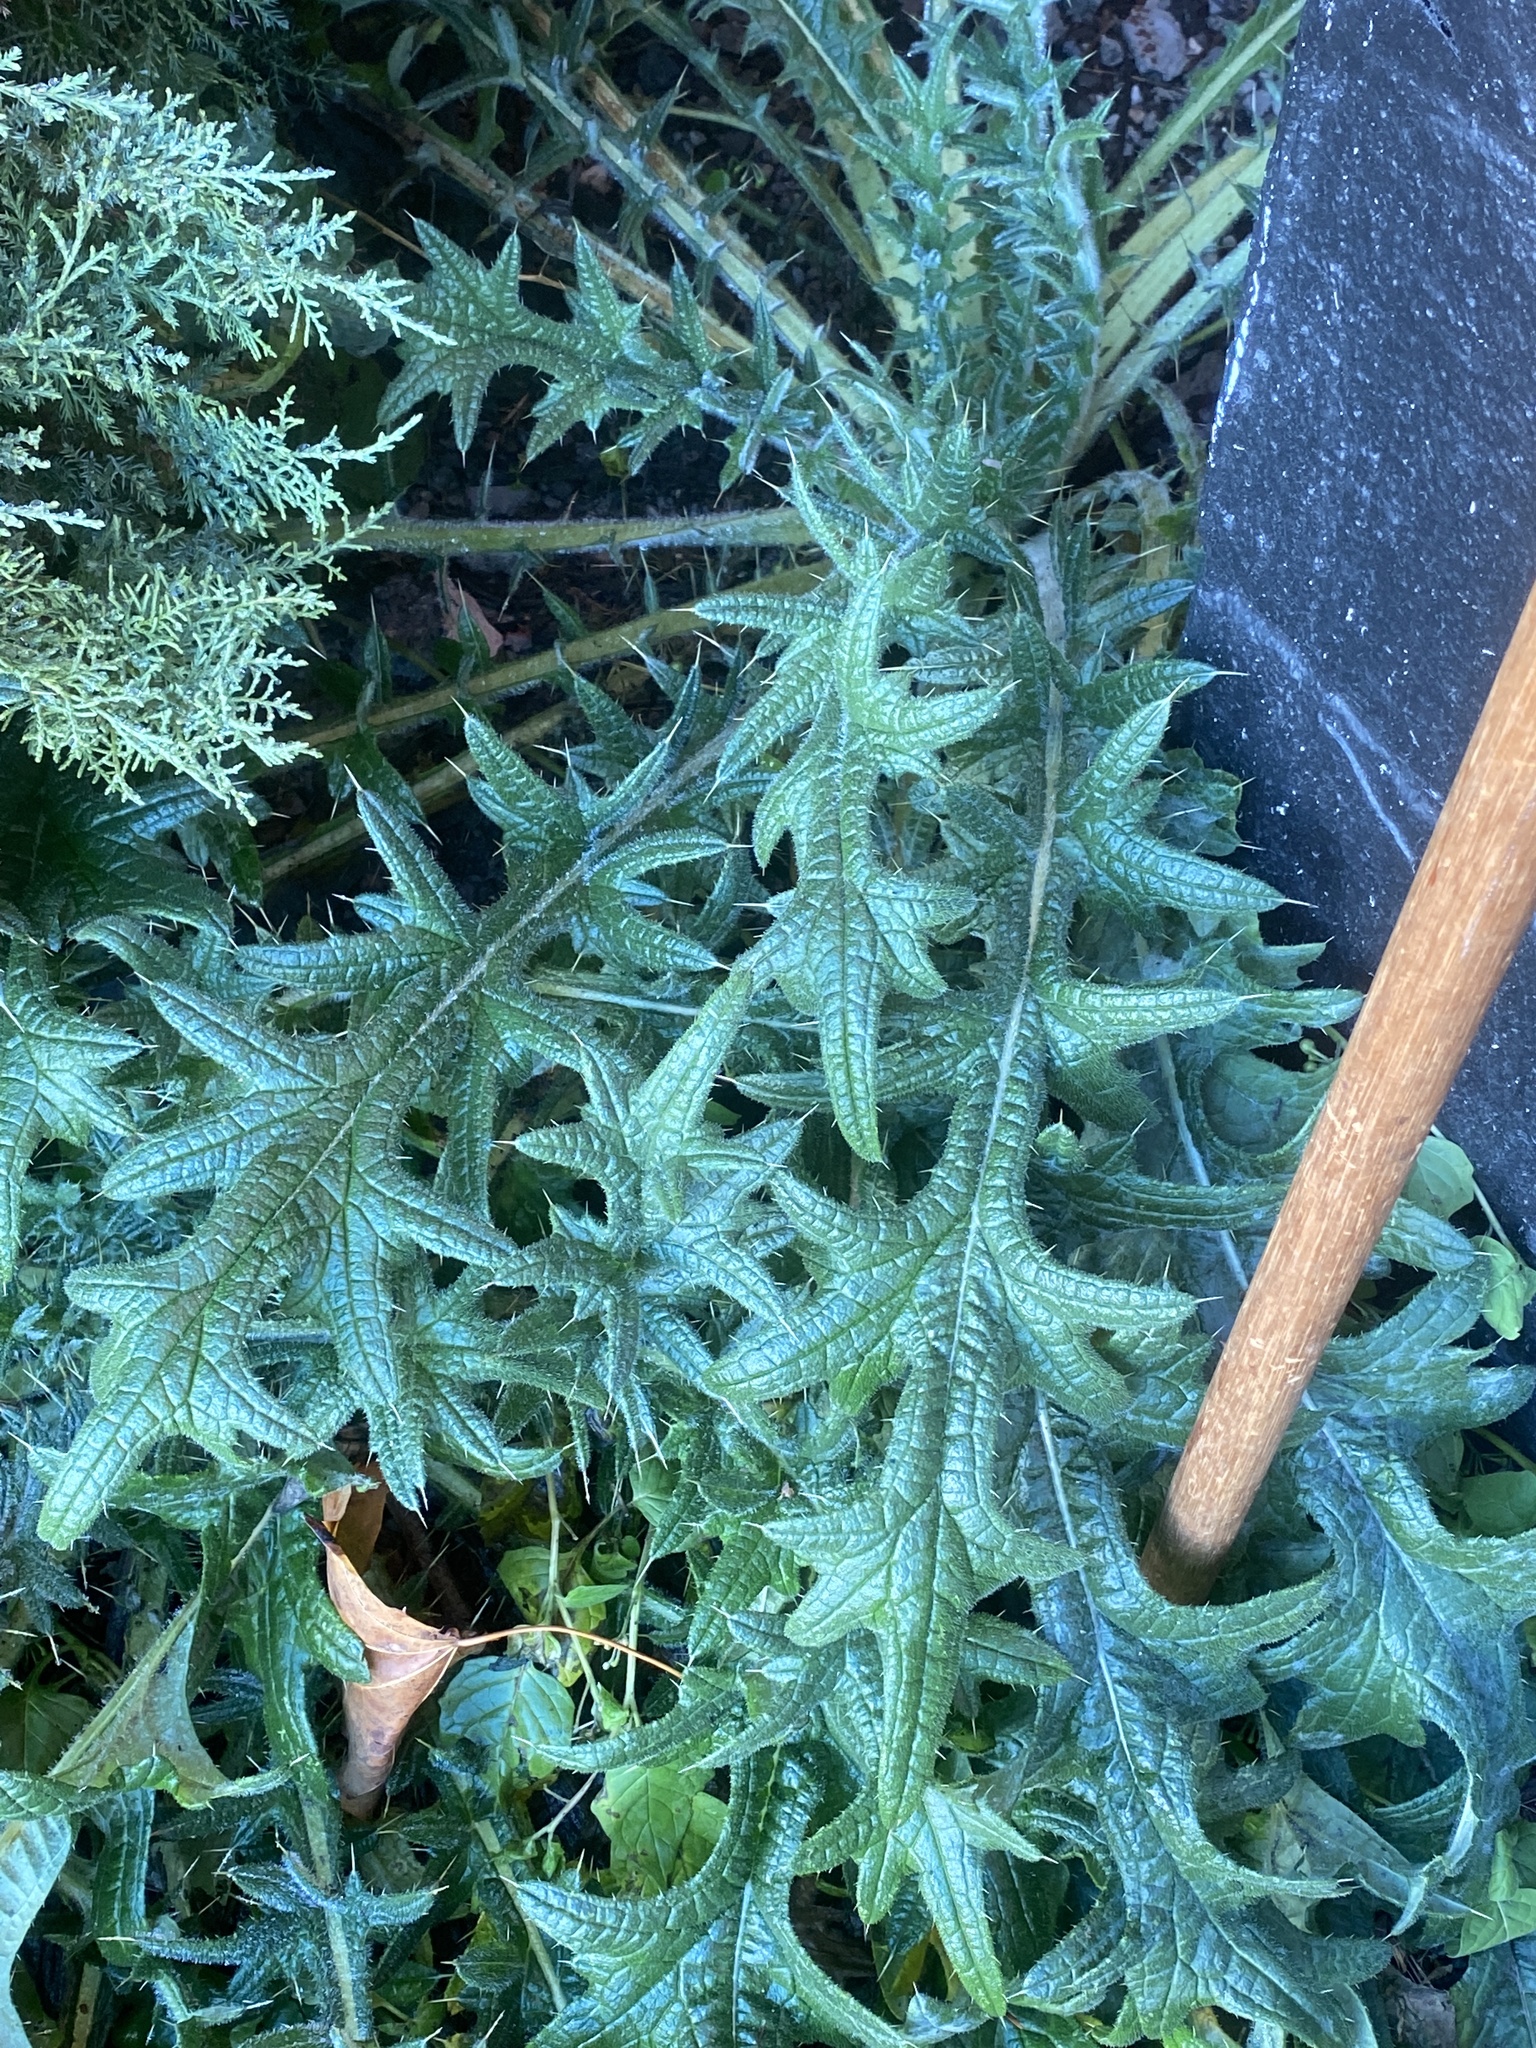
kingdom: Plantae
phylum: Tracheophyta
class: Magnoliopsida
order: Asterales
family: Asteraceae
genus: Cirsium
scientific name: Cirsium vulgare
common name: Bull thistle
